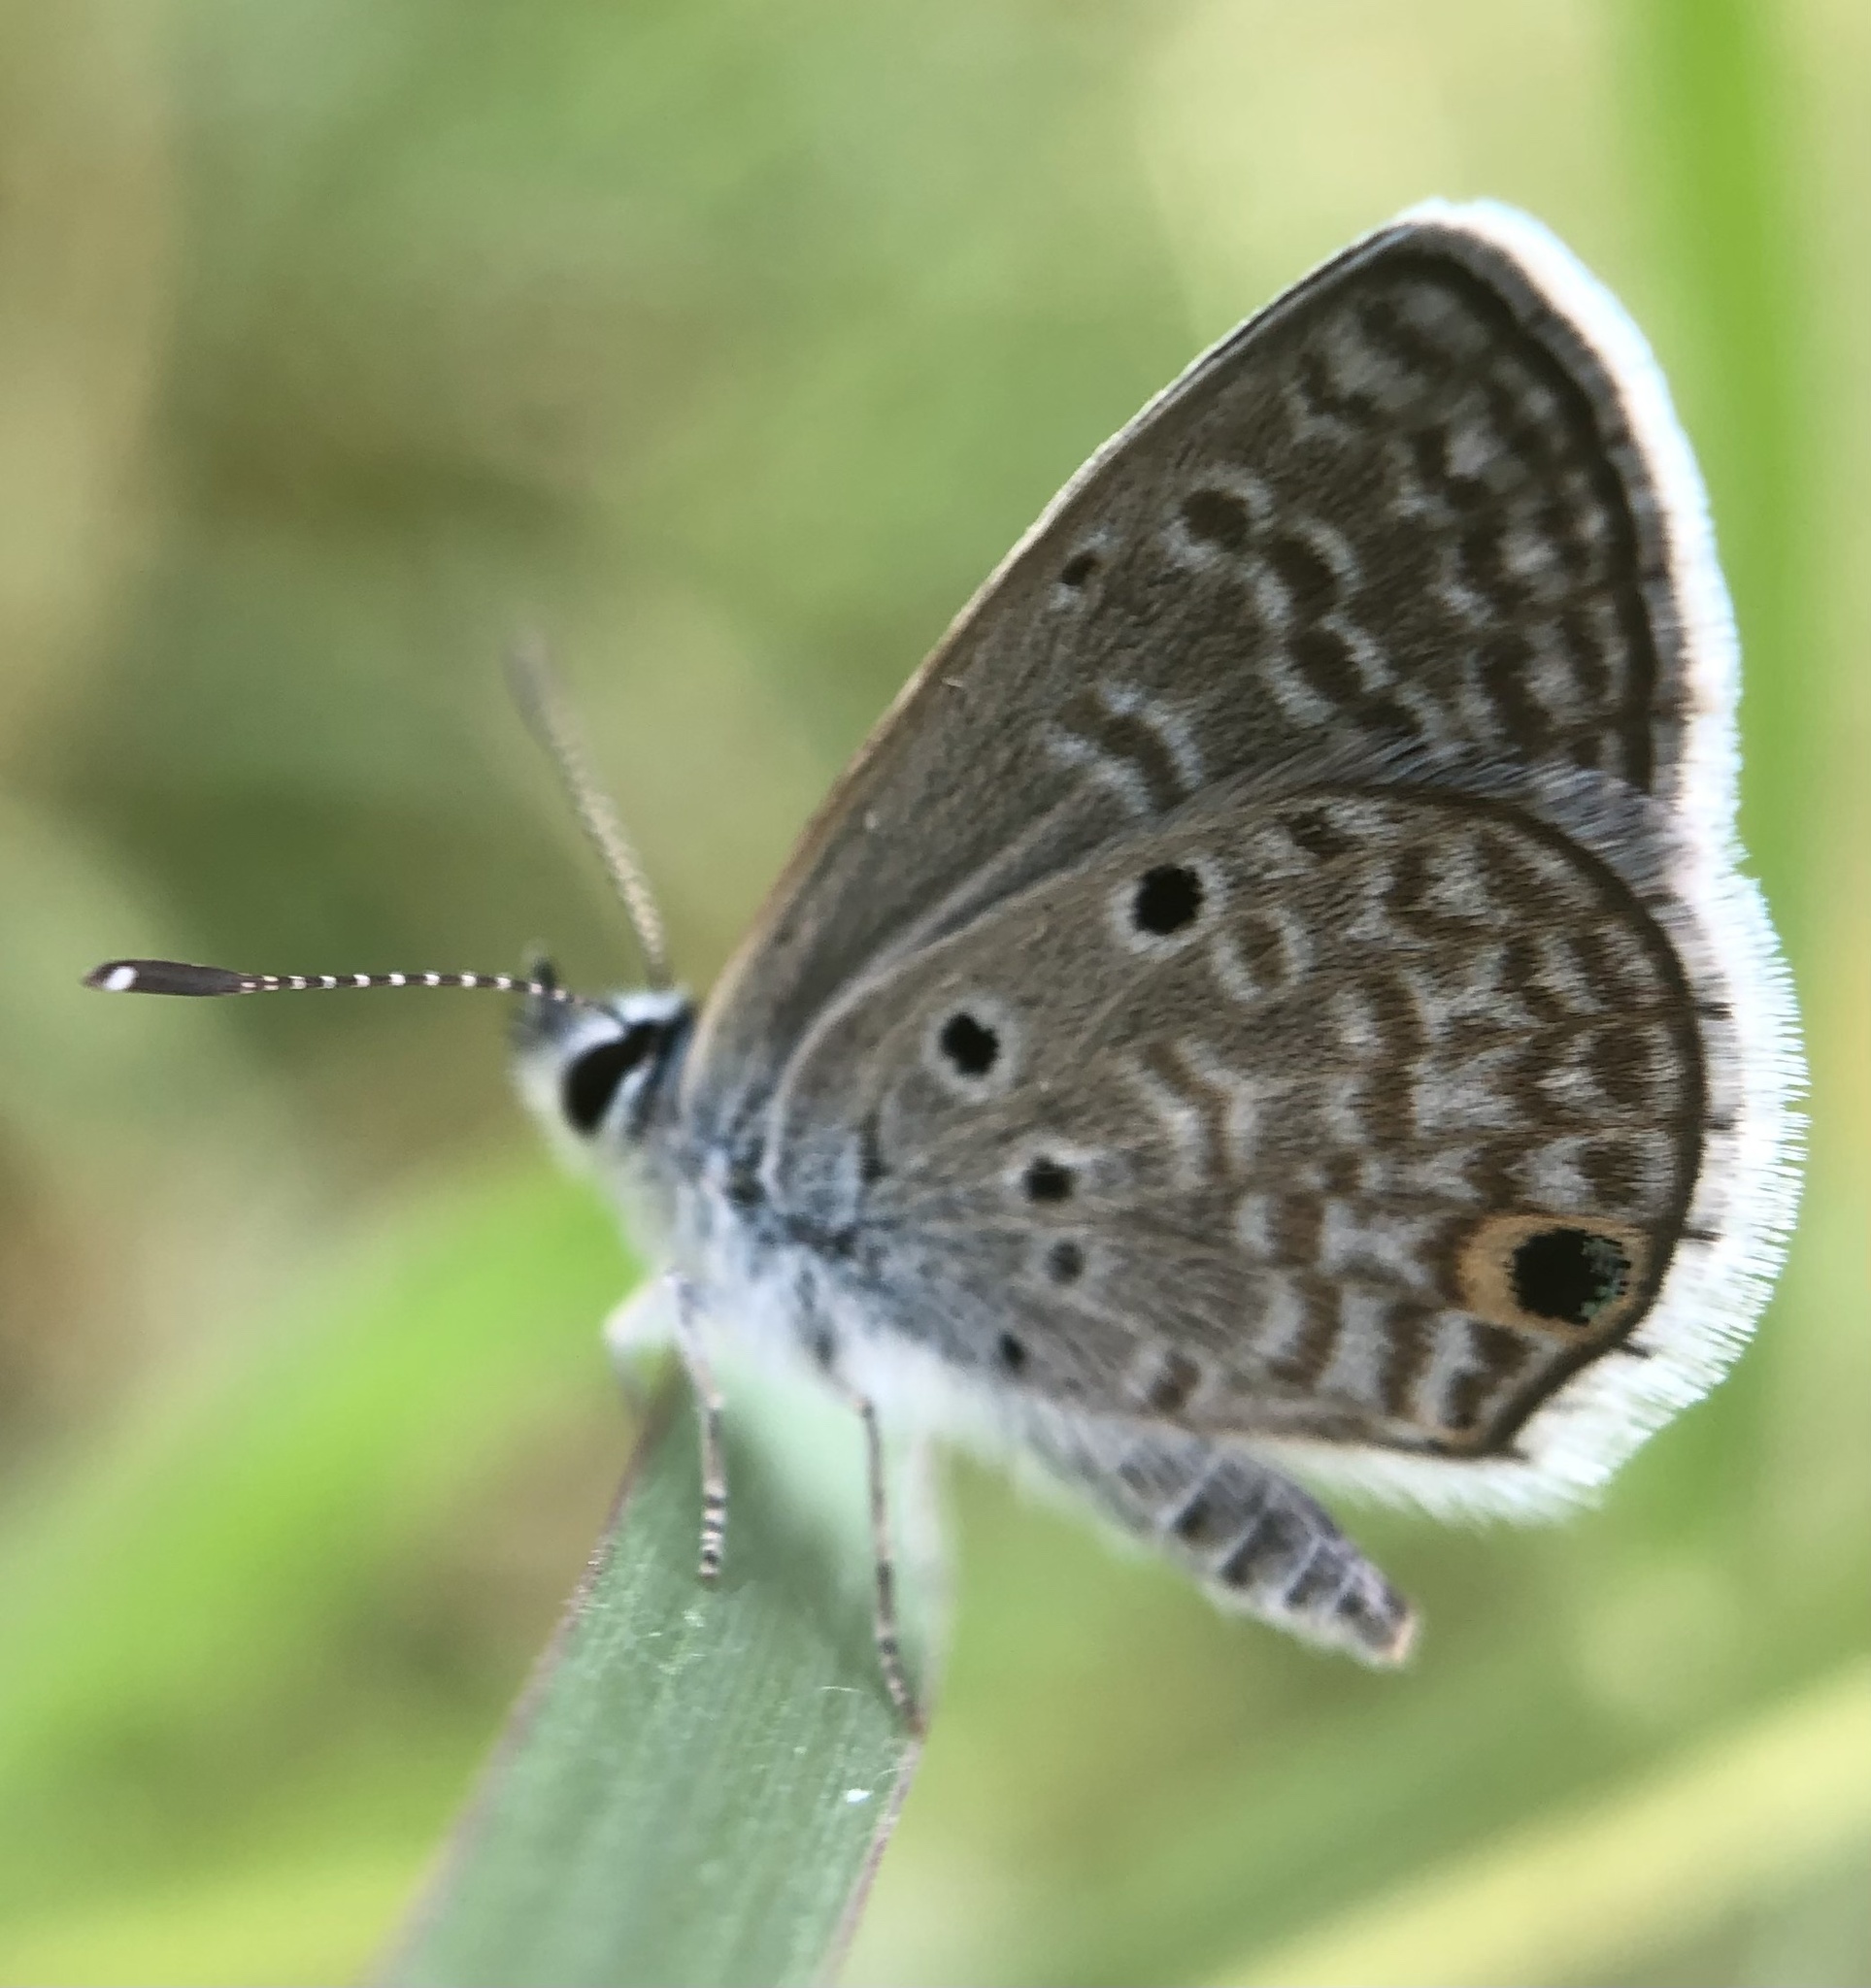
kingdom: Animalia
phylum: Arthropoda
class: Insecta
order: Lepidoptera
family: Lycaenidae
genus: Hemiargus
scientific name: Hemiargus hanno
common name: Common blue
